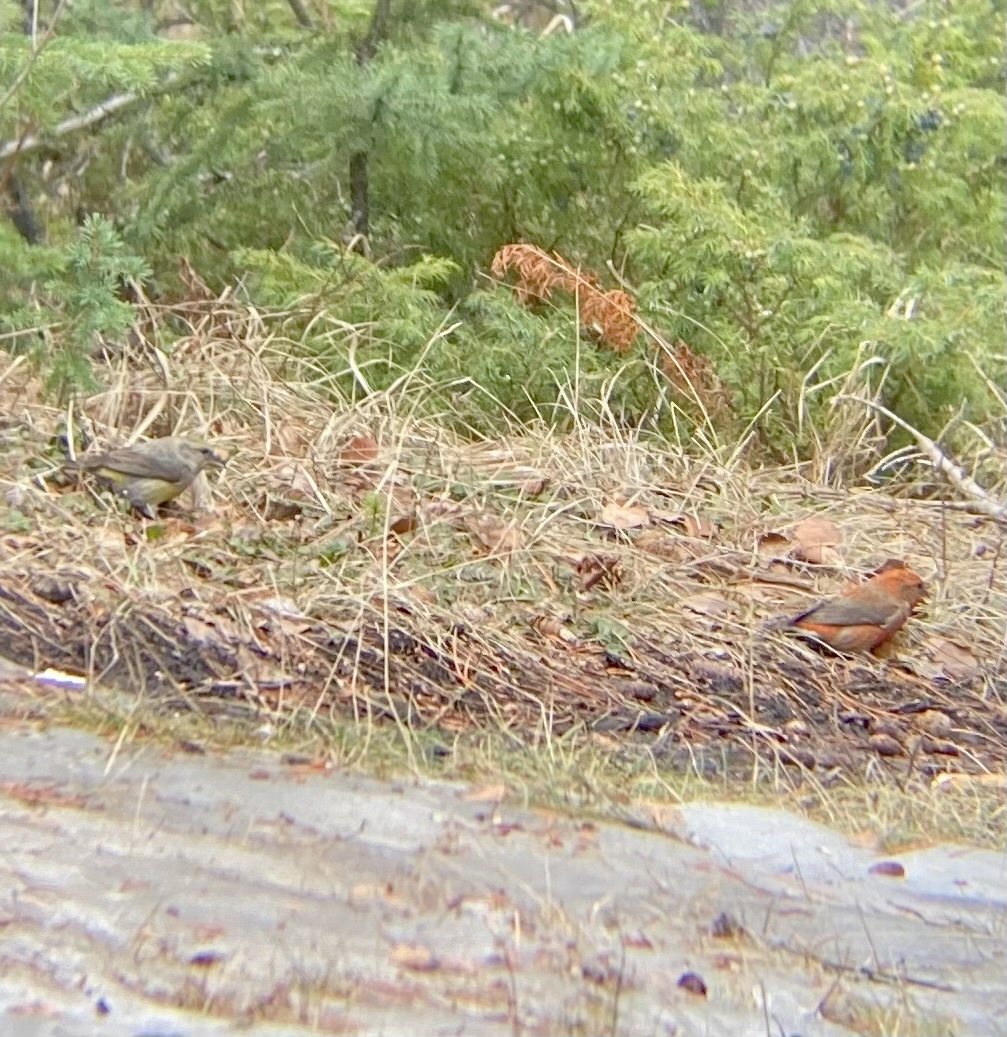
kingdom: Animalia
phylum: Chordata
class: Aves
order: Passeriformes
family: Fringillidae
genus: Loxia
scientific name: Loxia curvirostra
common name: Red crossbill
